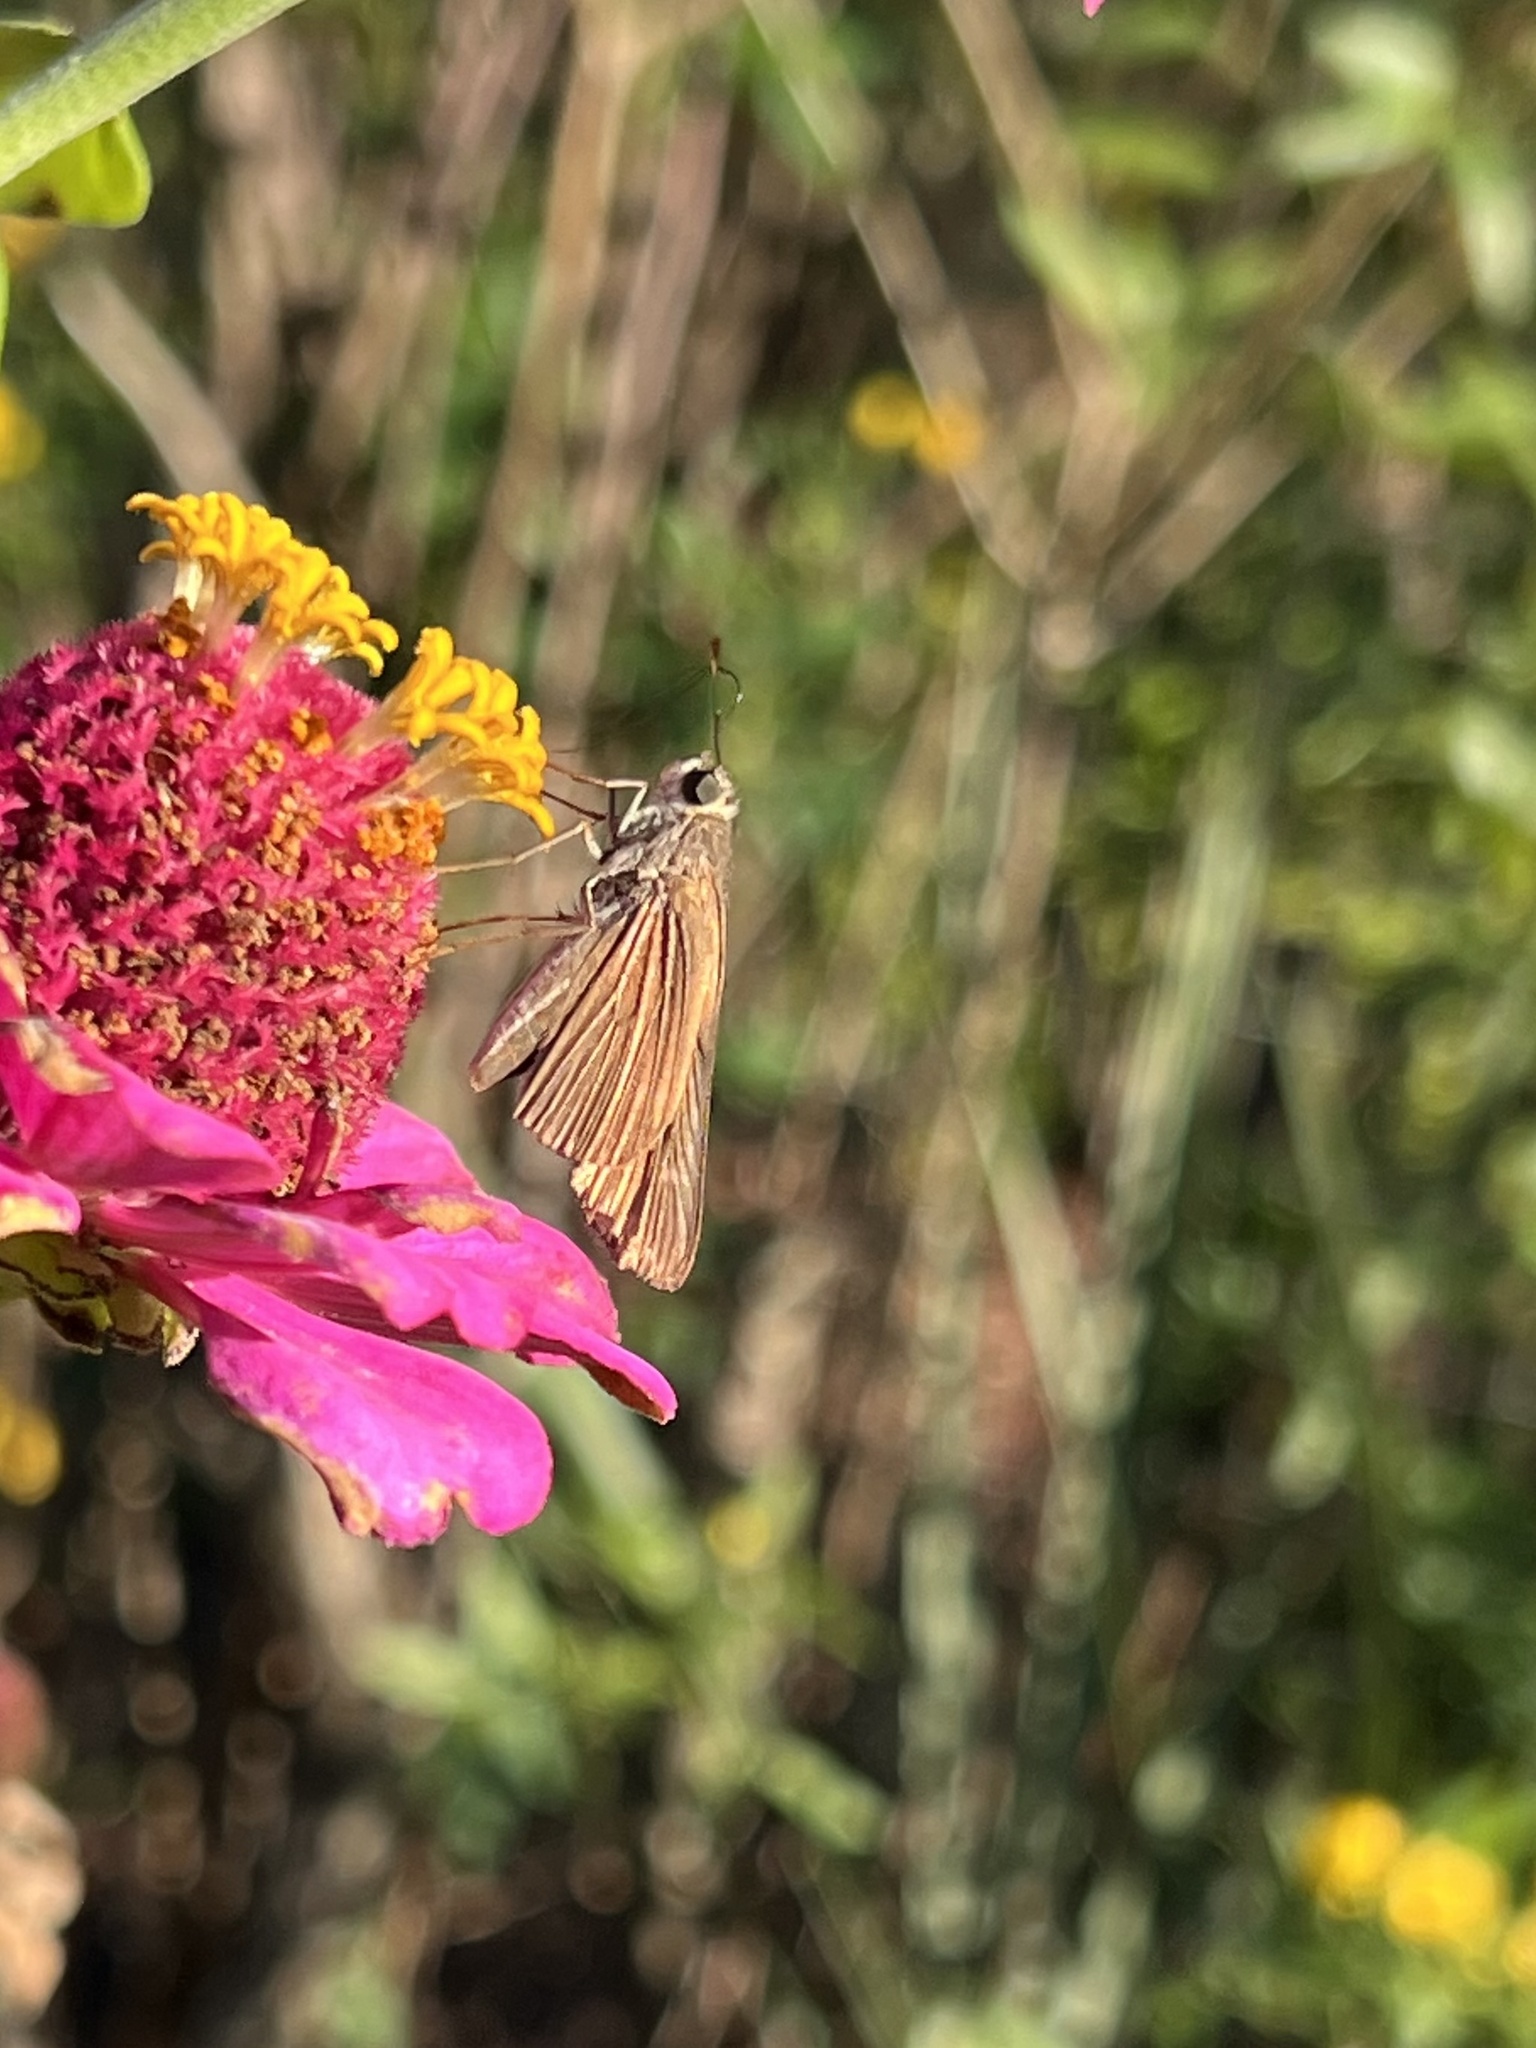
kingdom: Animalia
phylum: Arthropoda
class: Insecta
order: Lepidoptera
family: Hesperiidae
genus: Panoquina
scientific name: Panoquina ocola
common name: Ocola skipper
